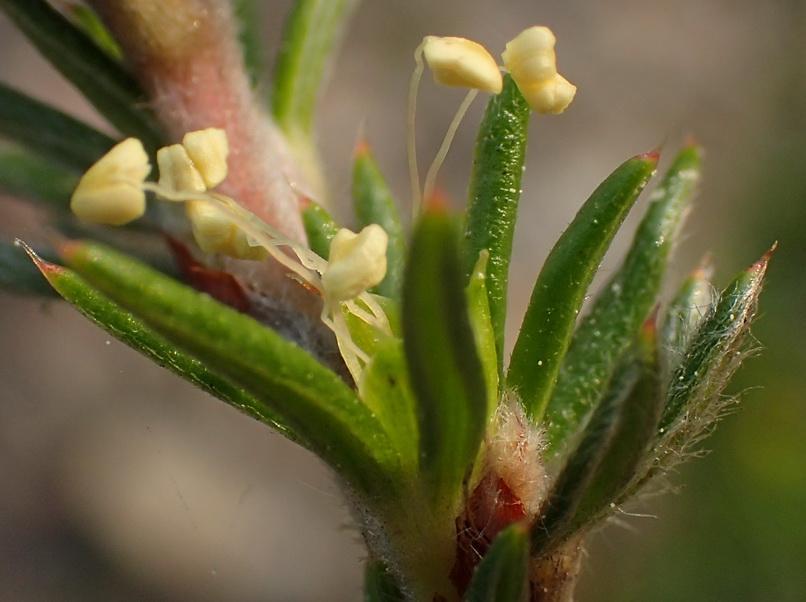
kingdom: Plantae
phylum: Tracheophyta
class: Magnoliopsida
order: Rosales
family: Rosaceae
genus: Cliffortia
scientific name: Cliffortia stricta
